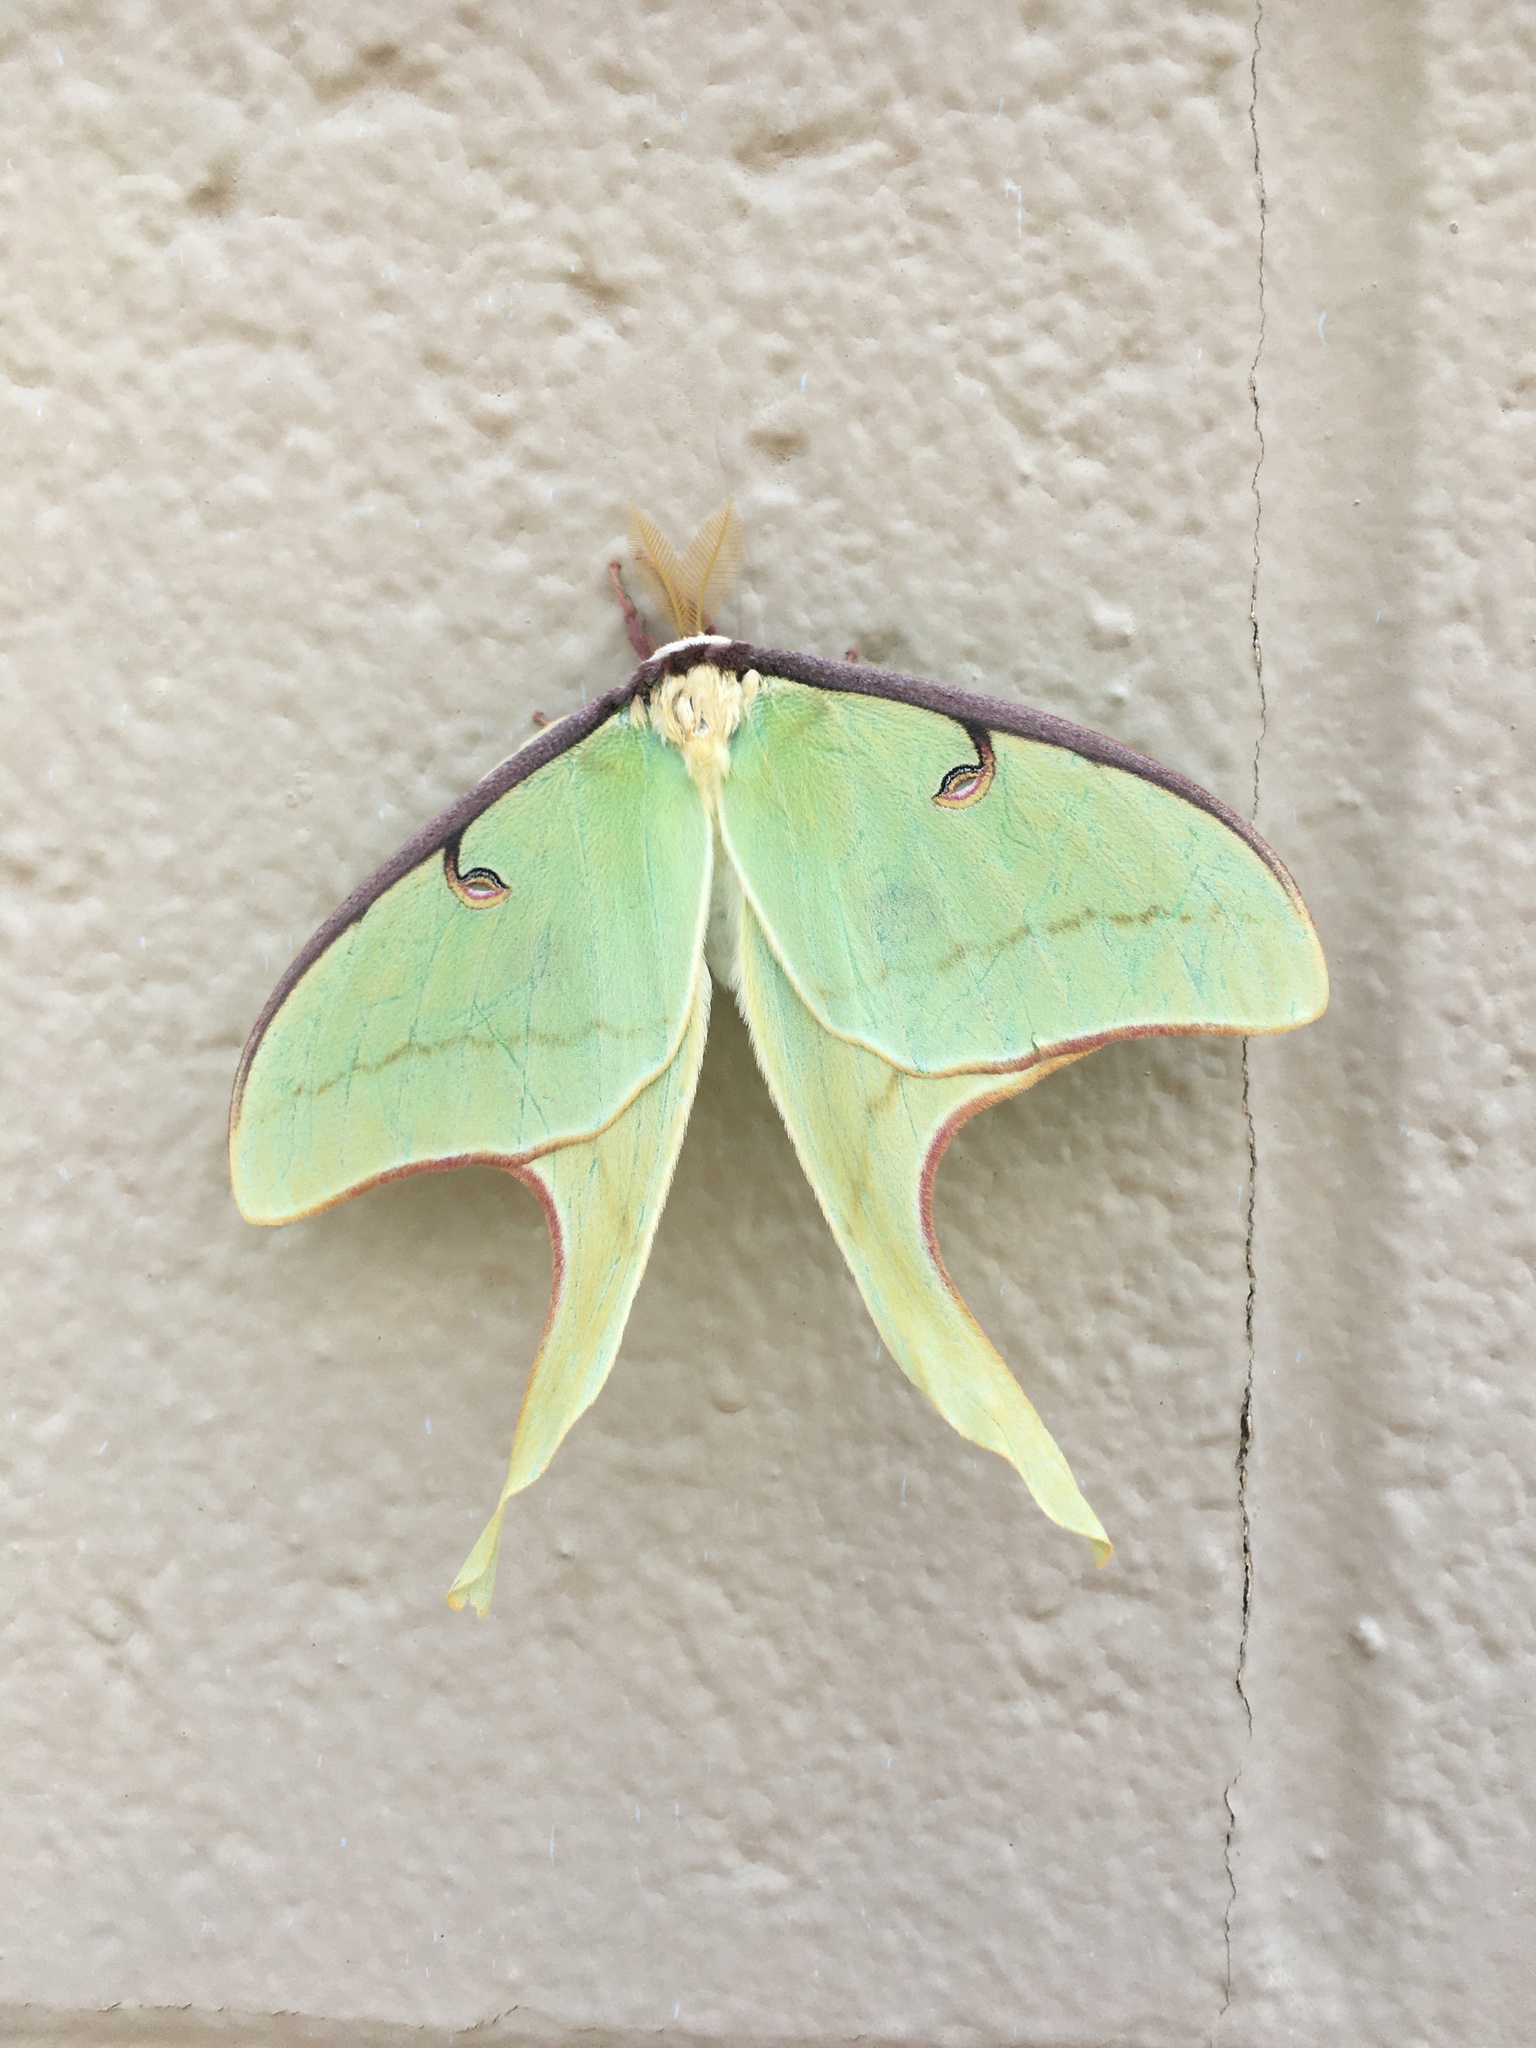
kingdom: Animalia
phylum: Arthropoda
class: Insecta
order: Lepidoptera
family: Saturniidae
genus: Actias
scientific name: Actias luna
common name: Luna moth
